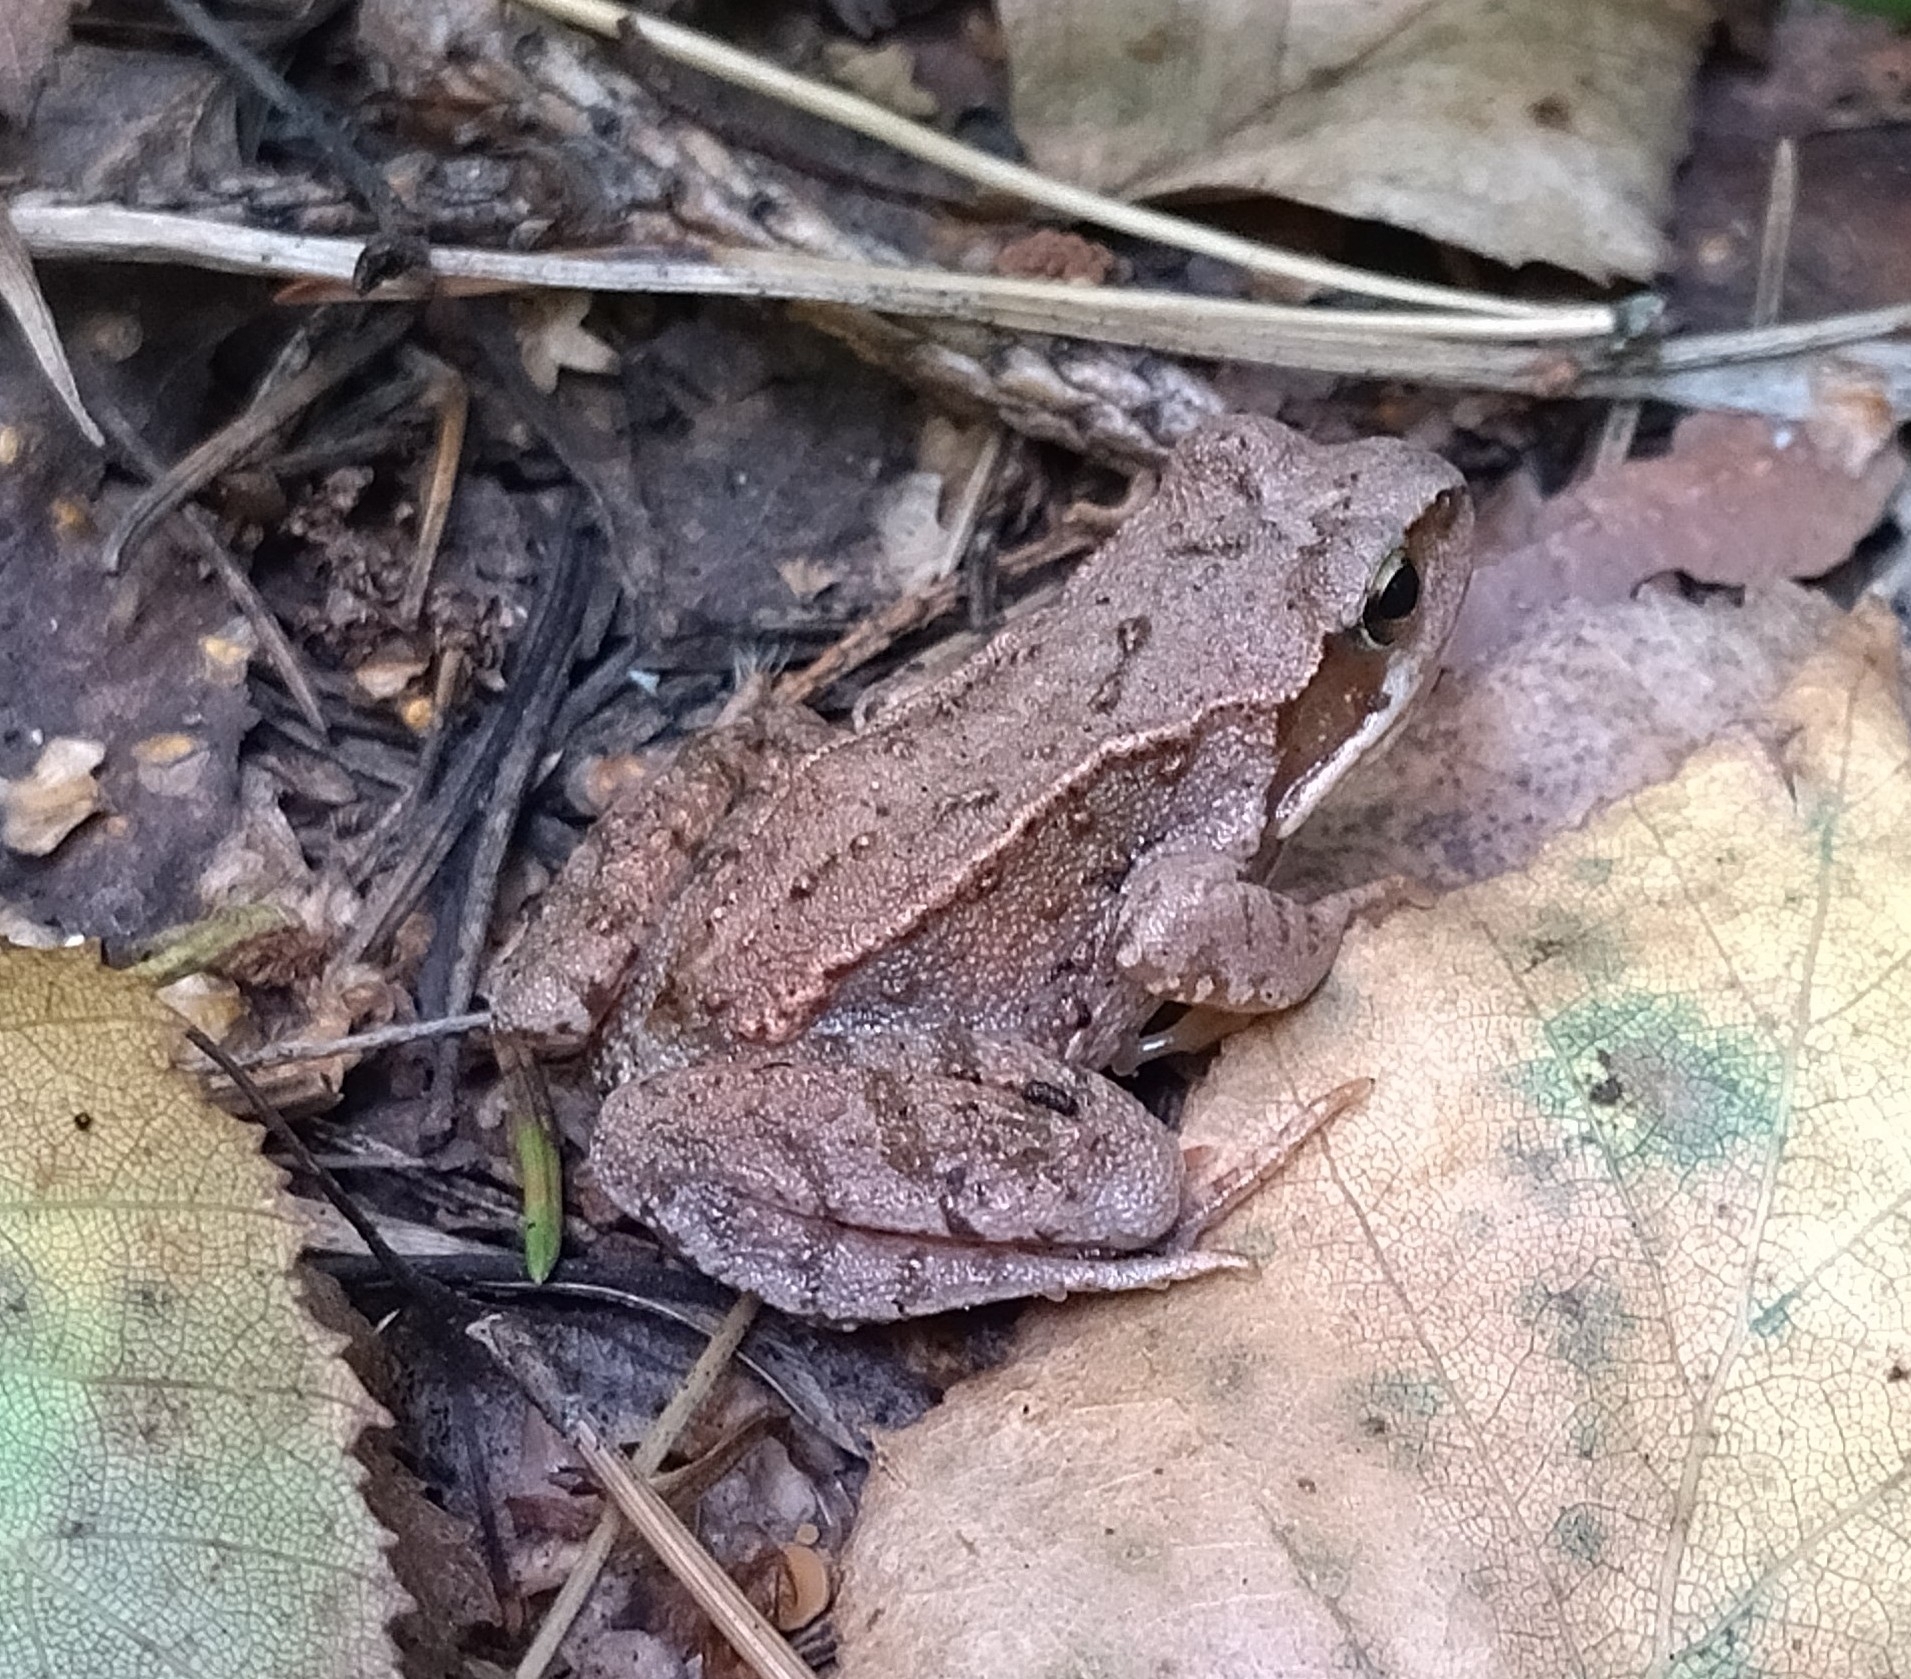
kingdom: Animalia
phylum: Chordata
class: Amphibia
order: Anura
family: Ranidae
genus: Rana
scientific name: Rana temporaria
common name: Common frog
